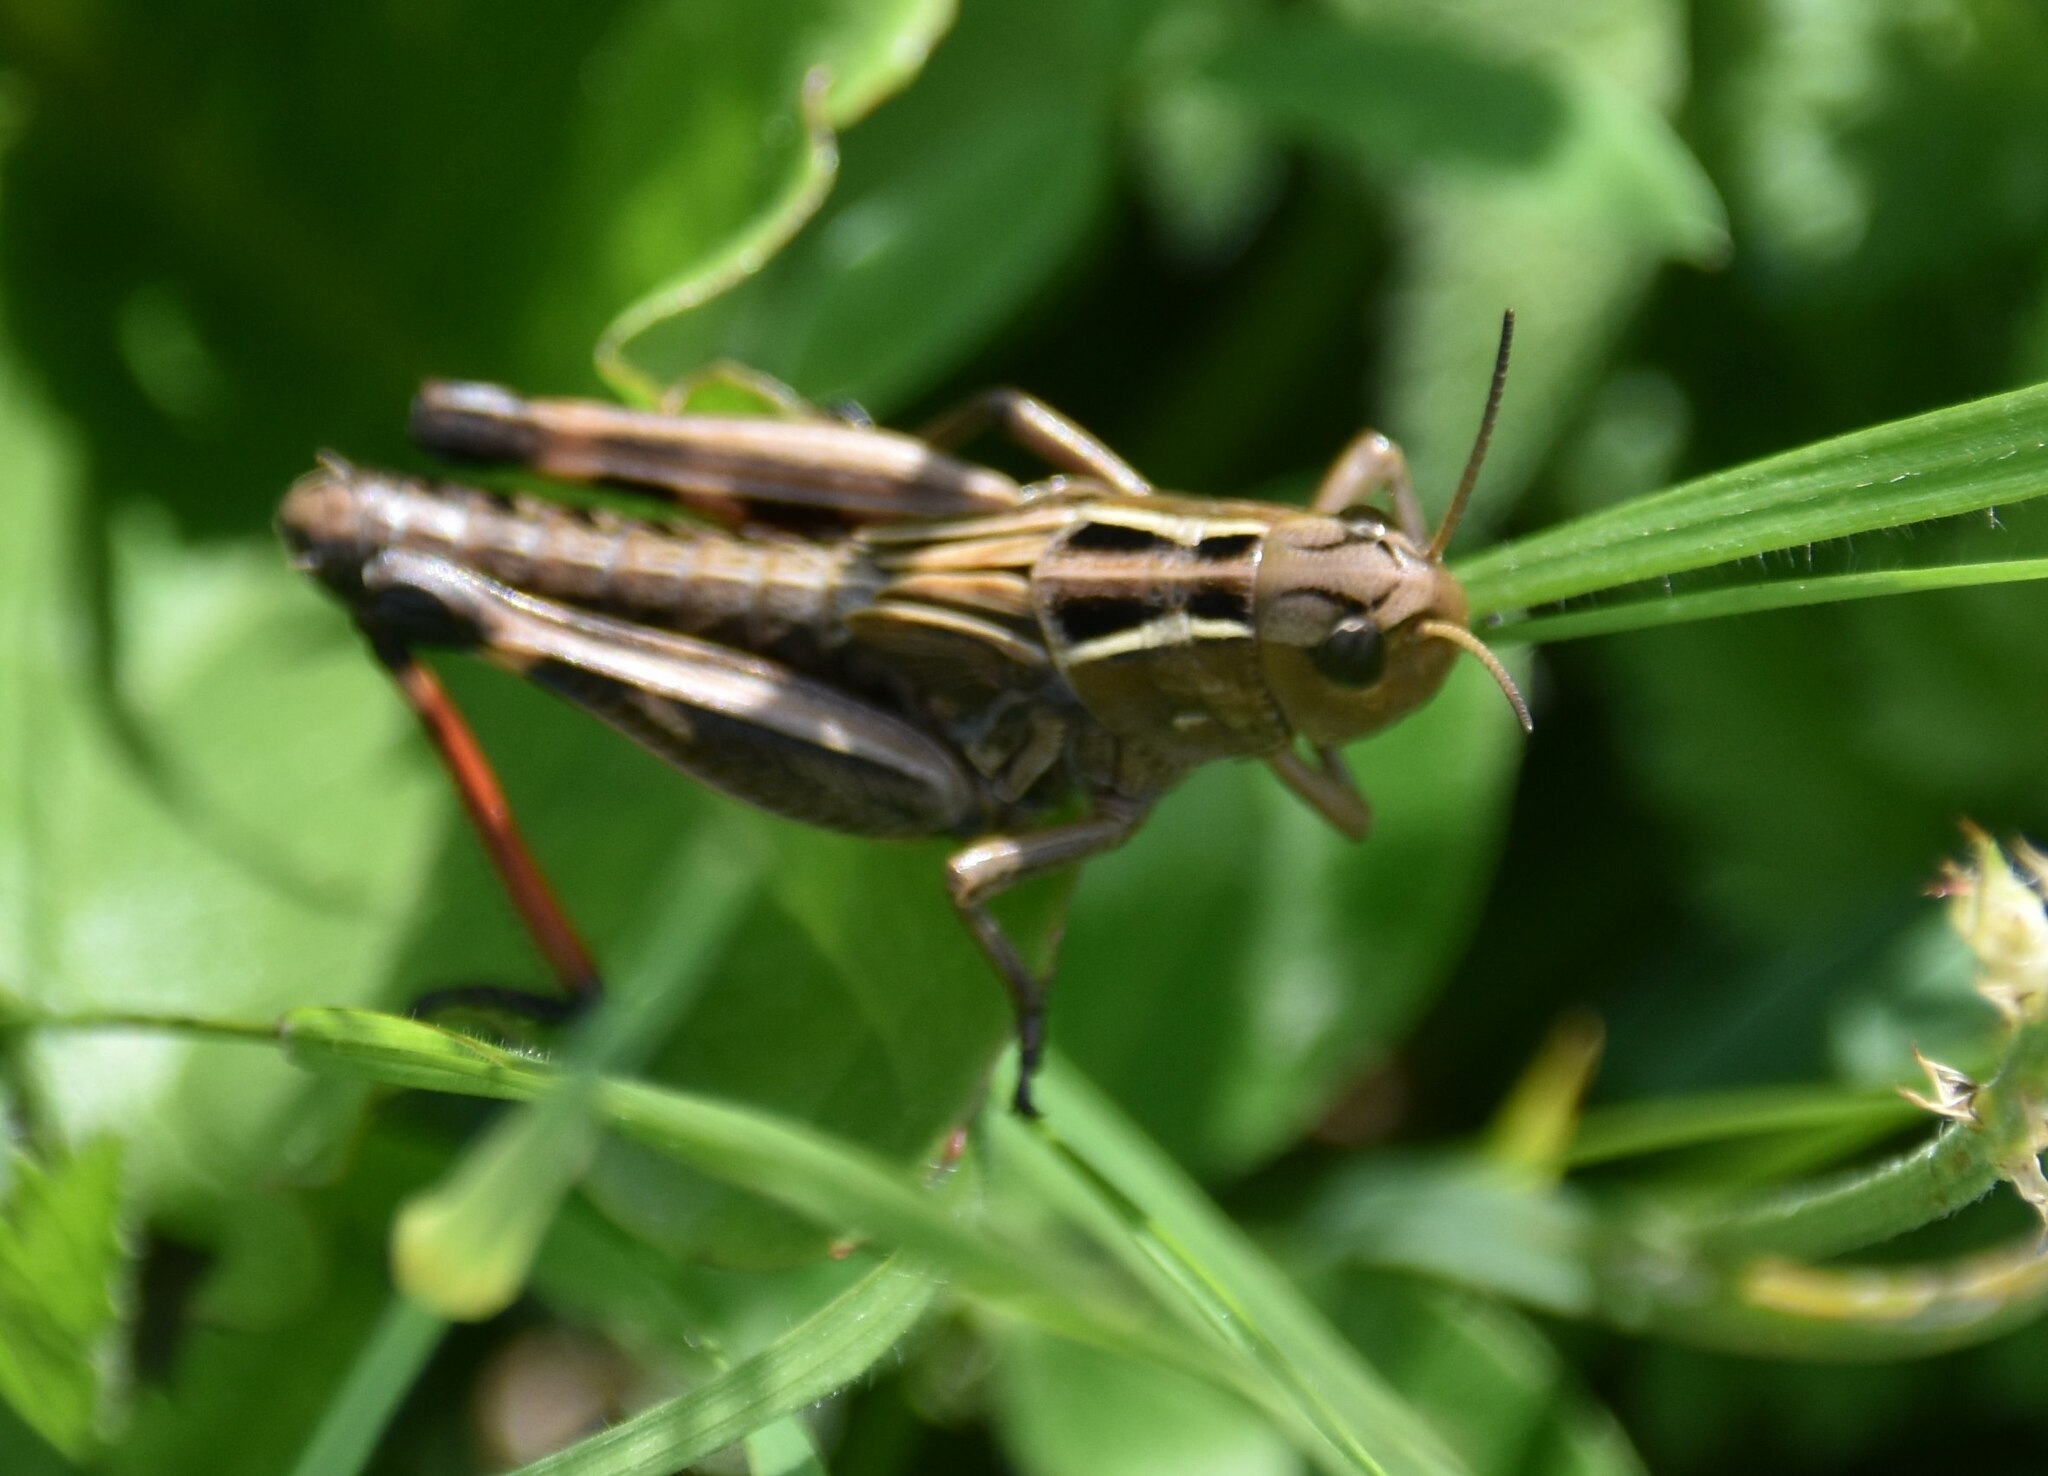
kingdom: Animalia
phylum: Arthropoda
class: Insecta
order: Orthoptera
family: Acrididae
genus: Arcyptera
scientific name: Arcyptera fusca
